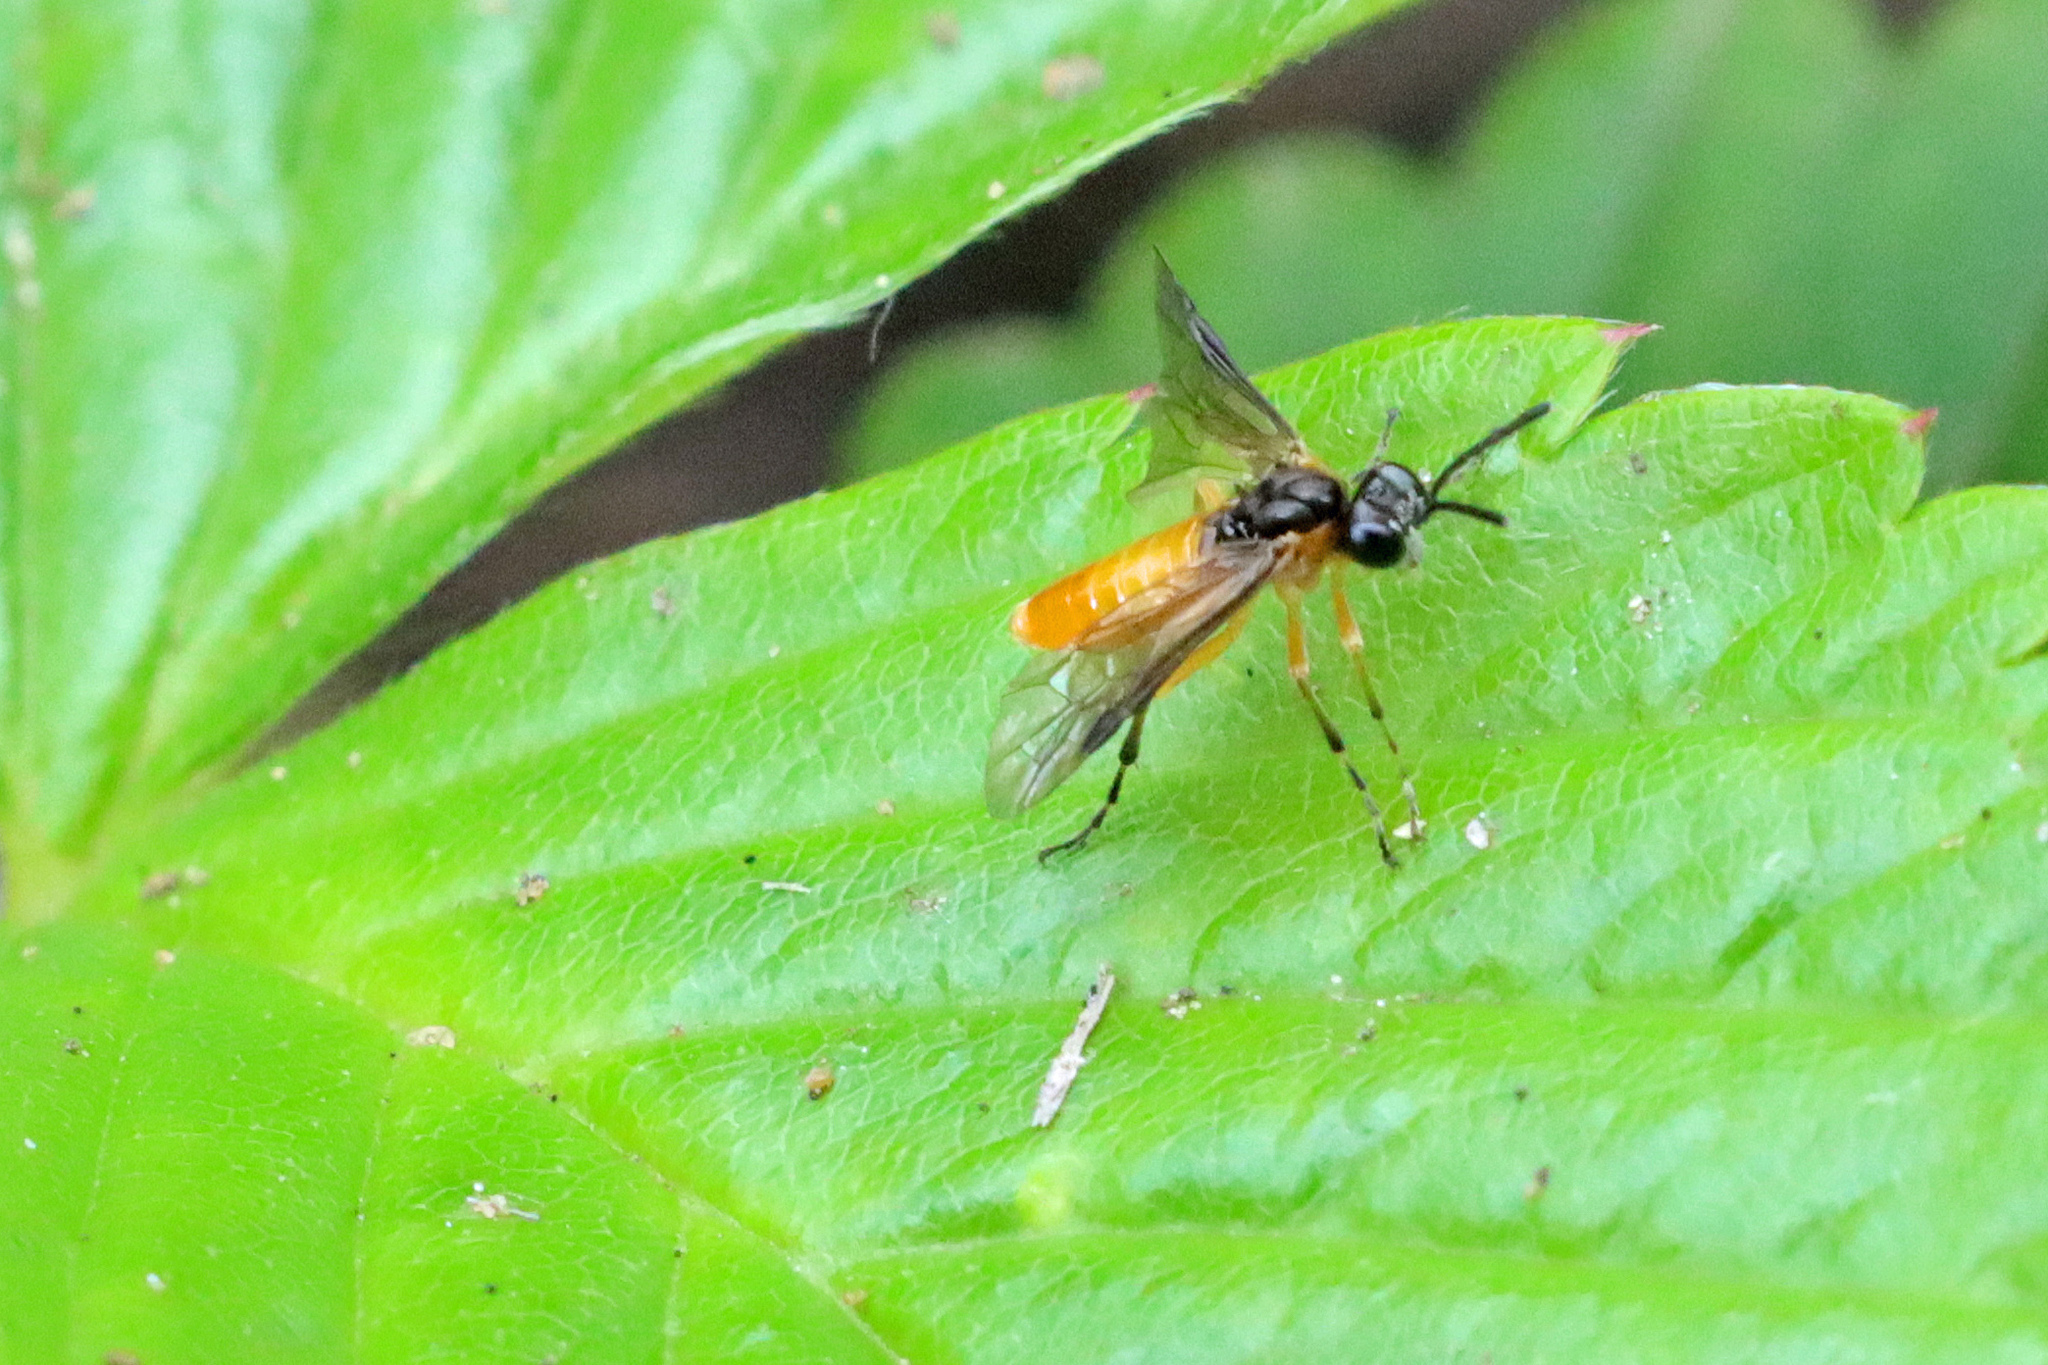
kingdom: Animalia
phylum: Arthropoda
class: Insecta
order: Hymenoptera
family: Tenthredinidae
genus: Athalia
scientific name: Athalia lugens
